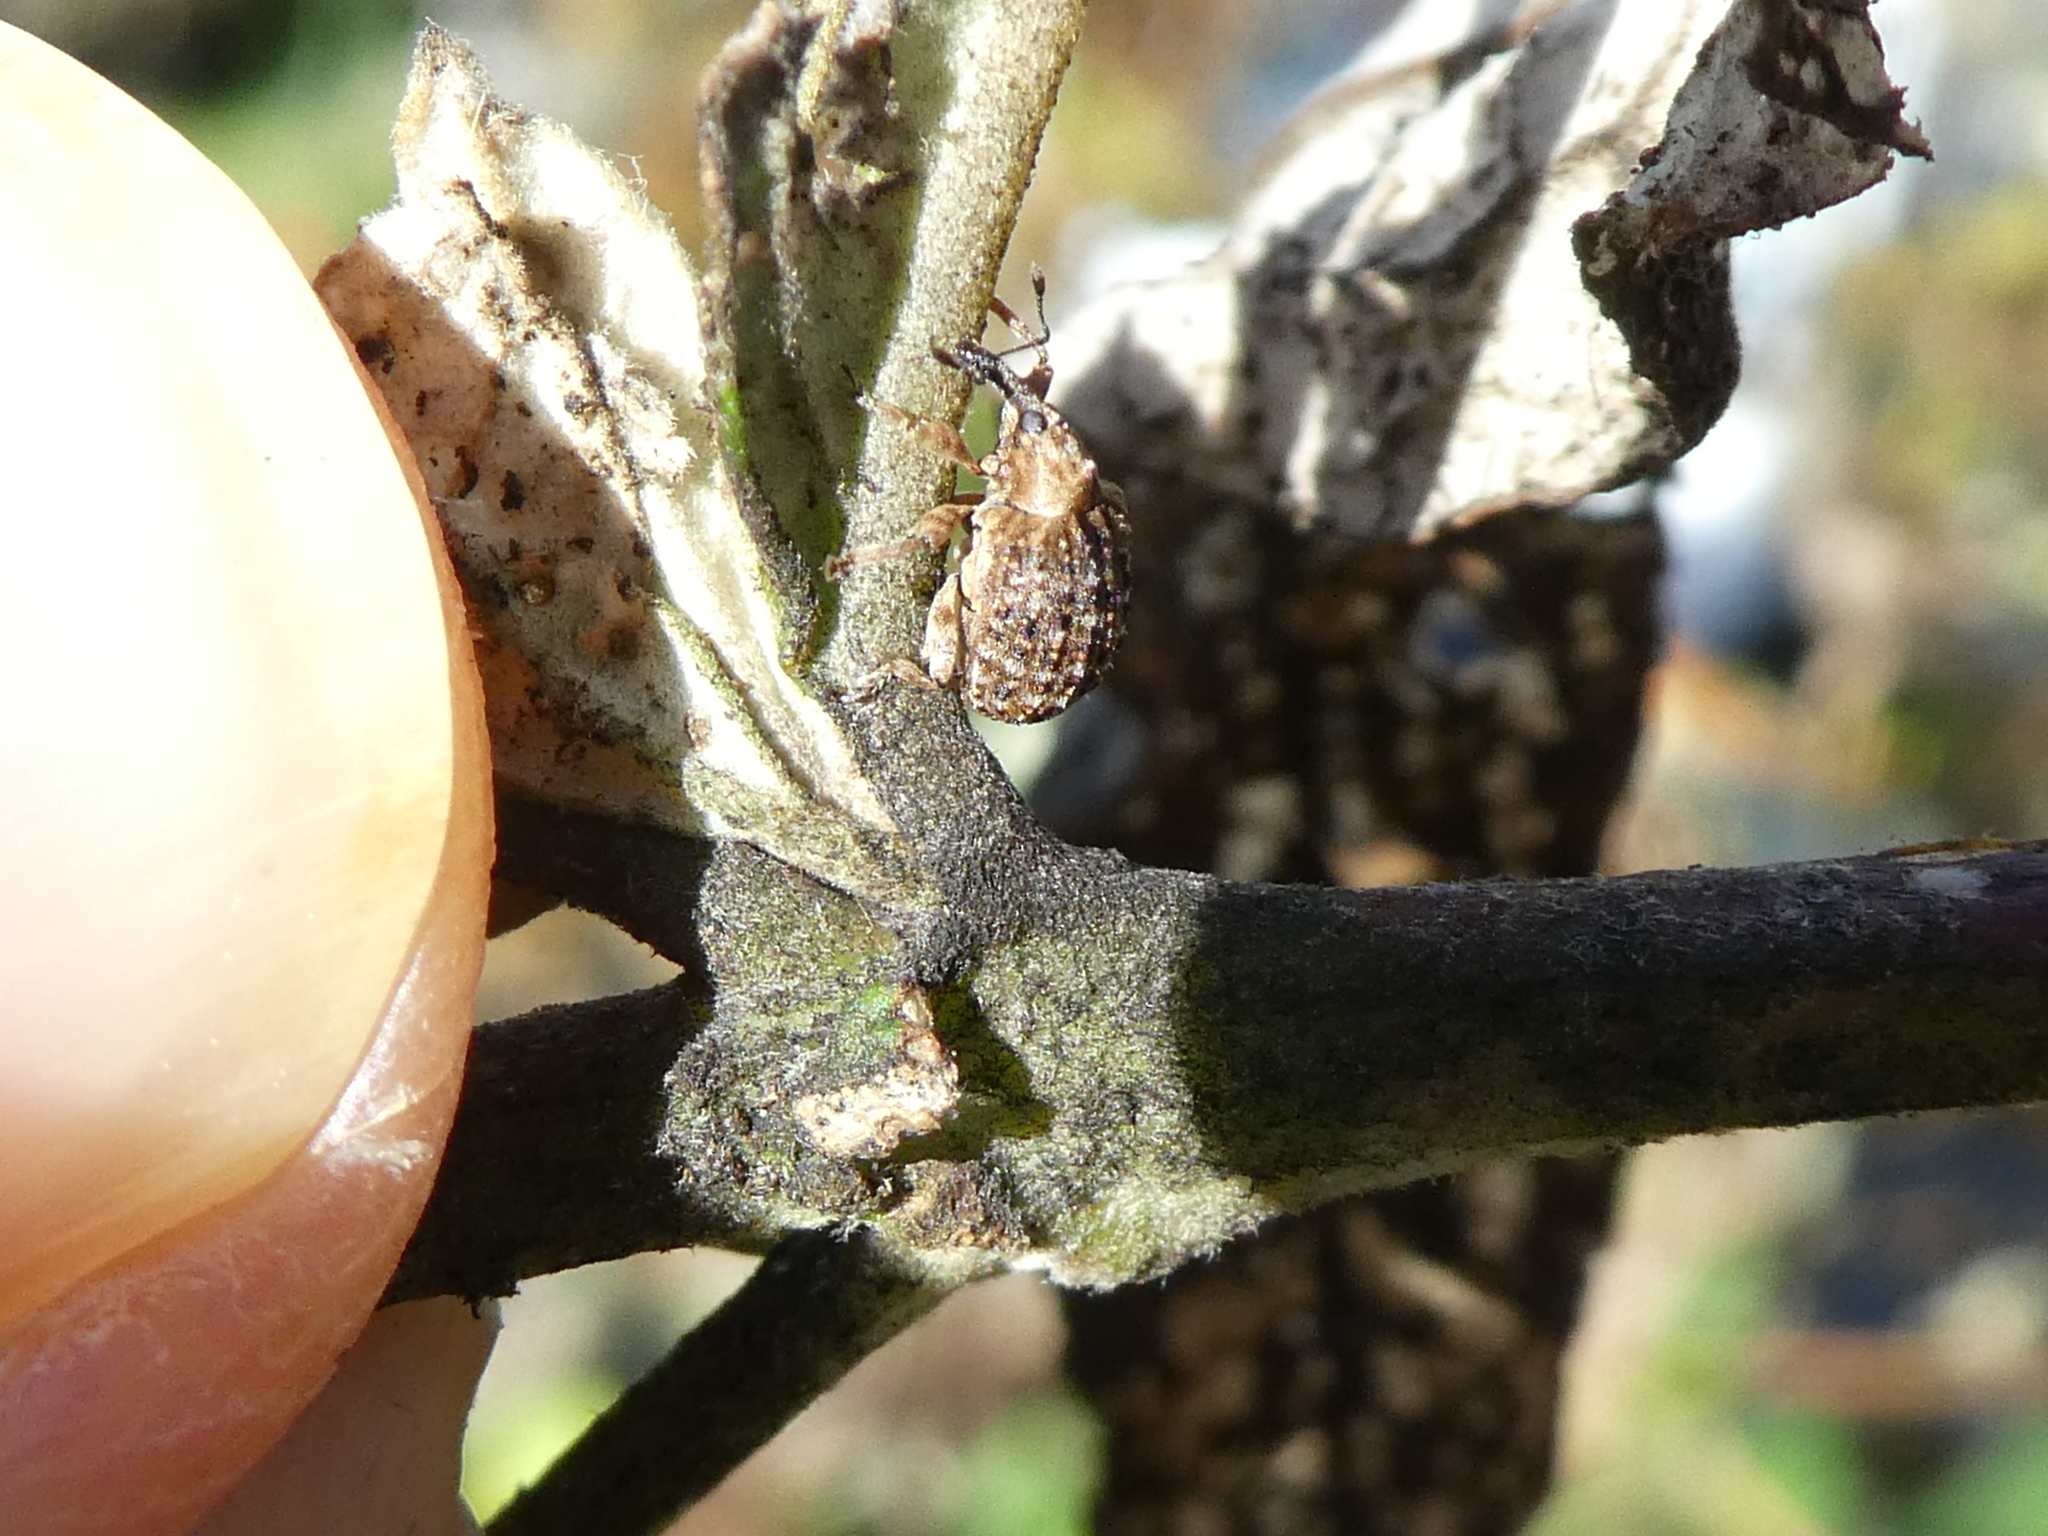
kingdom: Animalia
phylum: Arthropoda
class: Insecta
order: Coleoptera
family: Curculionidae
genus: Cleopus
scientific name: Cleopus japonicus
